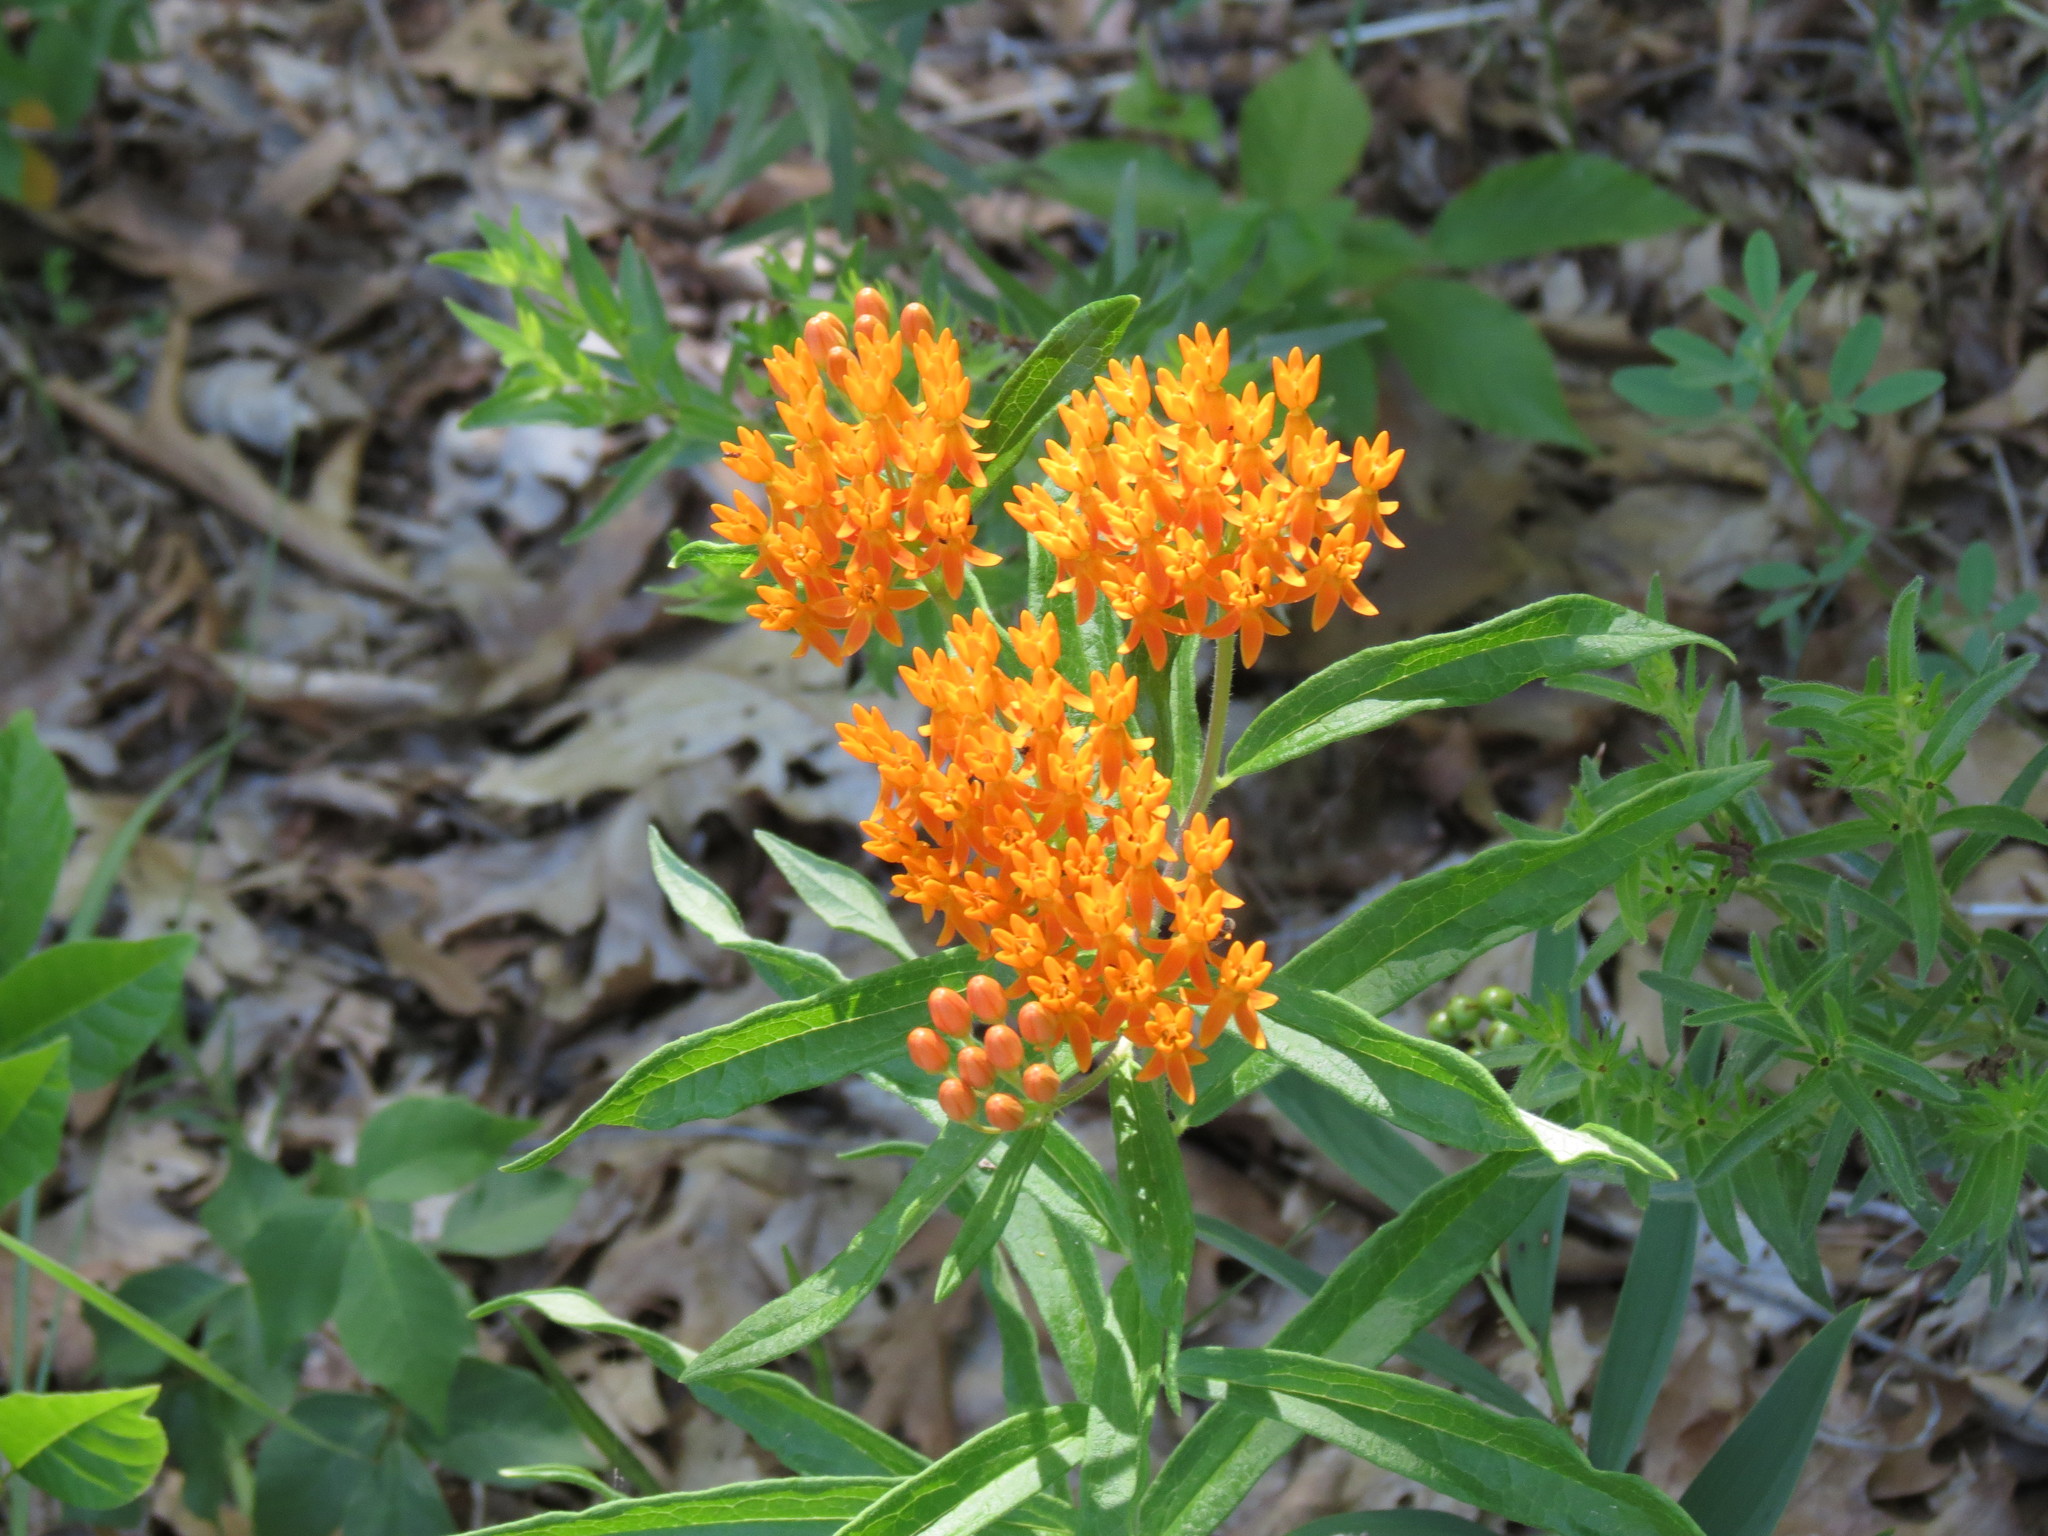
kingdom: Plantae
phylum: Tracheophyta
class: Magnoliopsida
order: Gentianales
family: Apocynaceae
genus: Asclepias
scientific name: Asclepias tuberosa
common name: Butterfly milkweed
